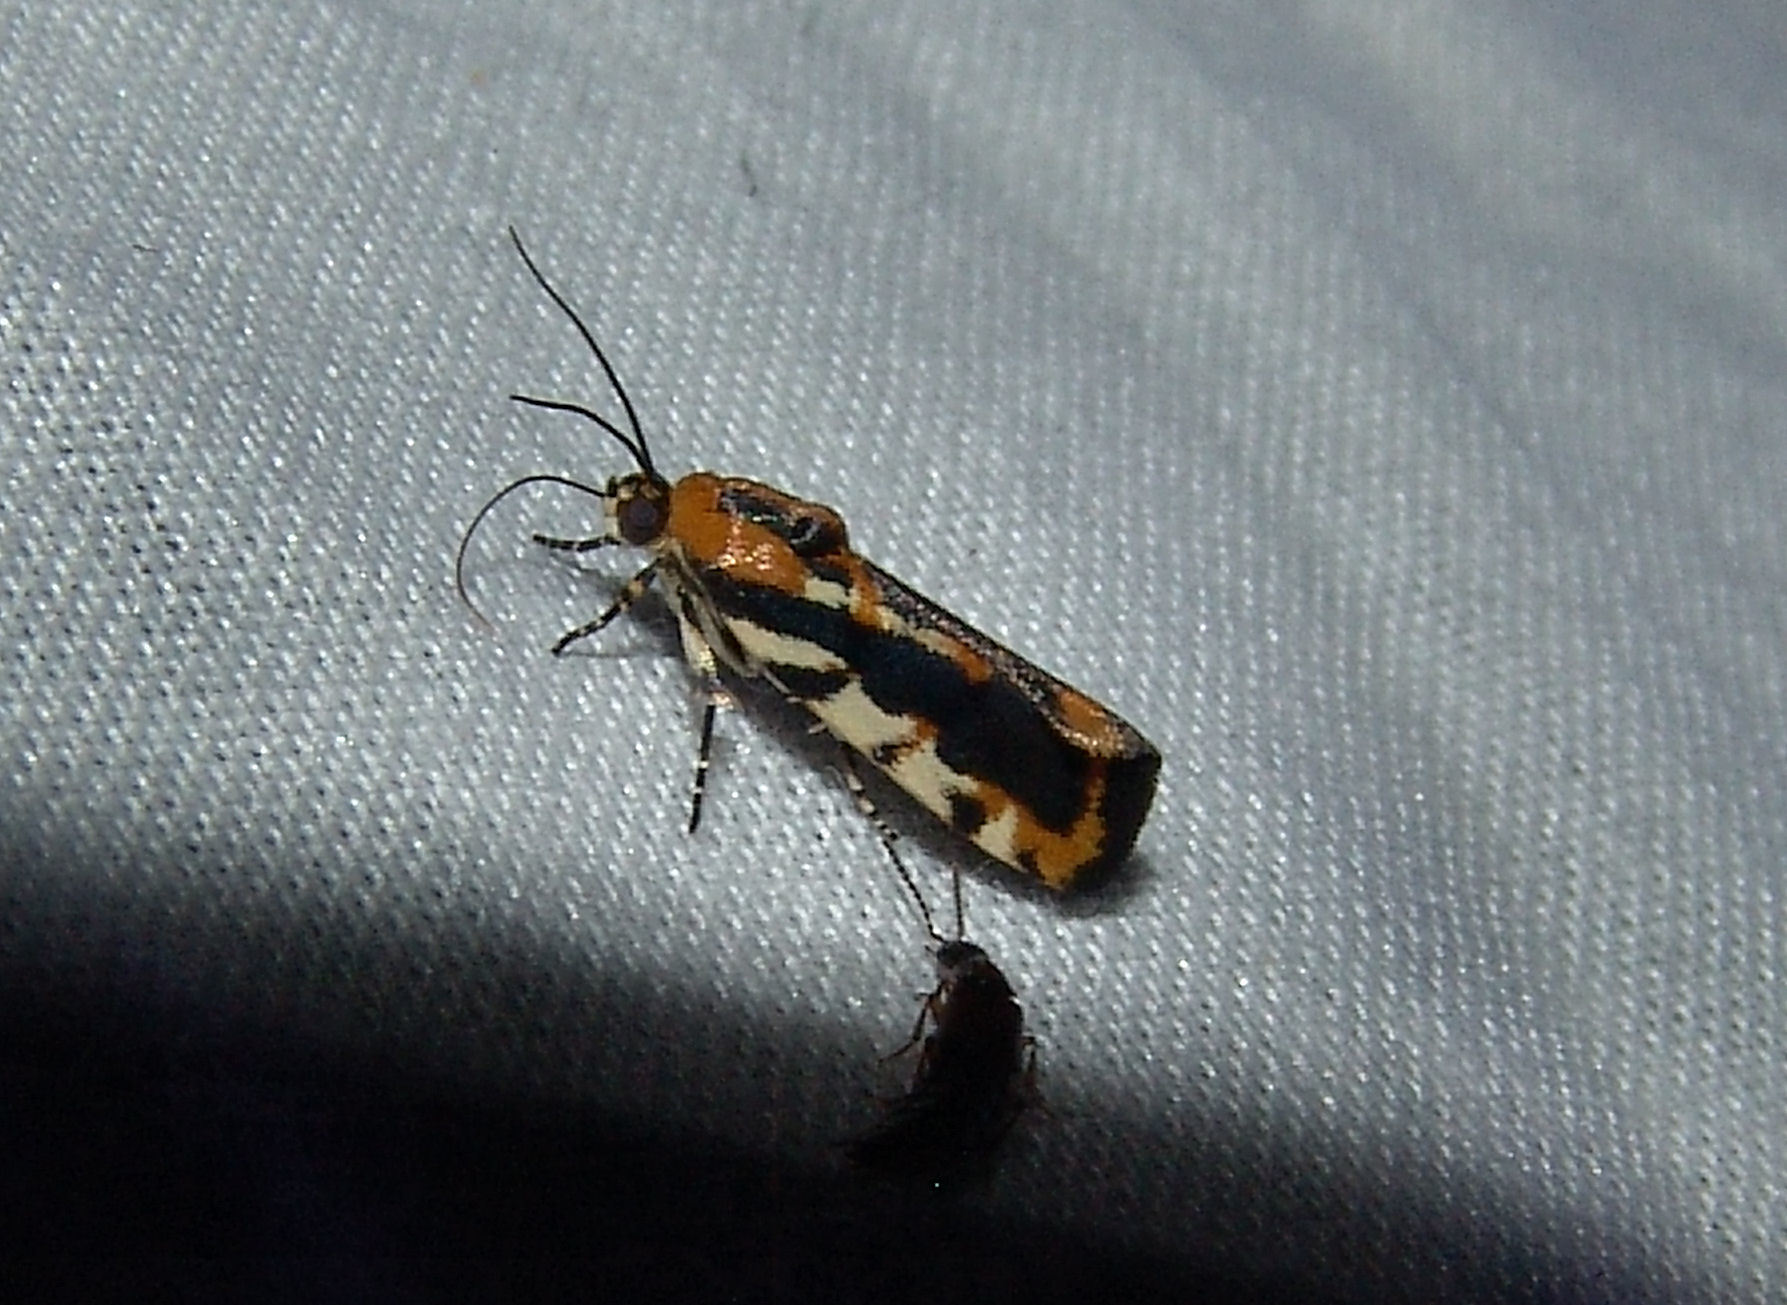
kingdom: Animalia
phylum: Arthropoda
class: Insecta
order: Lepidoptera
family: Noctuidae
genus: Acontia
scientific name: Acontia leo
